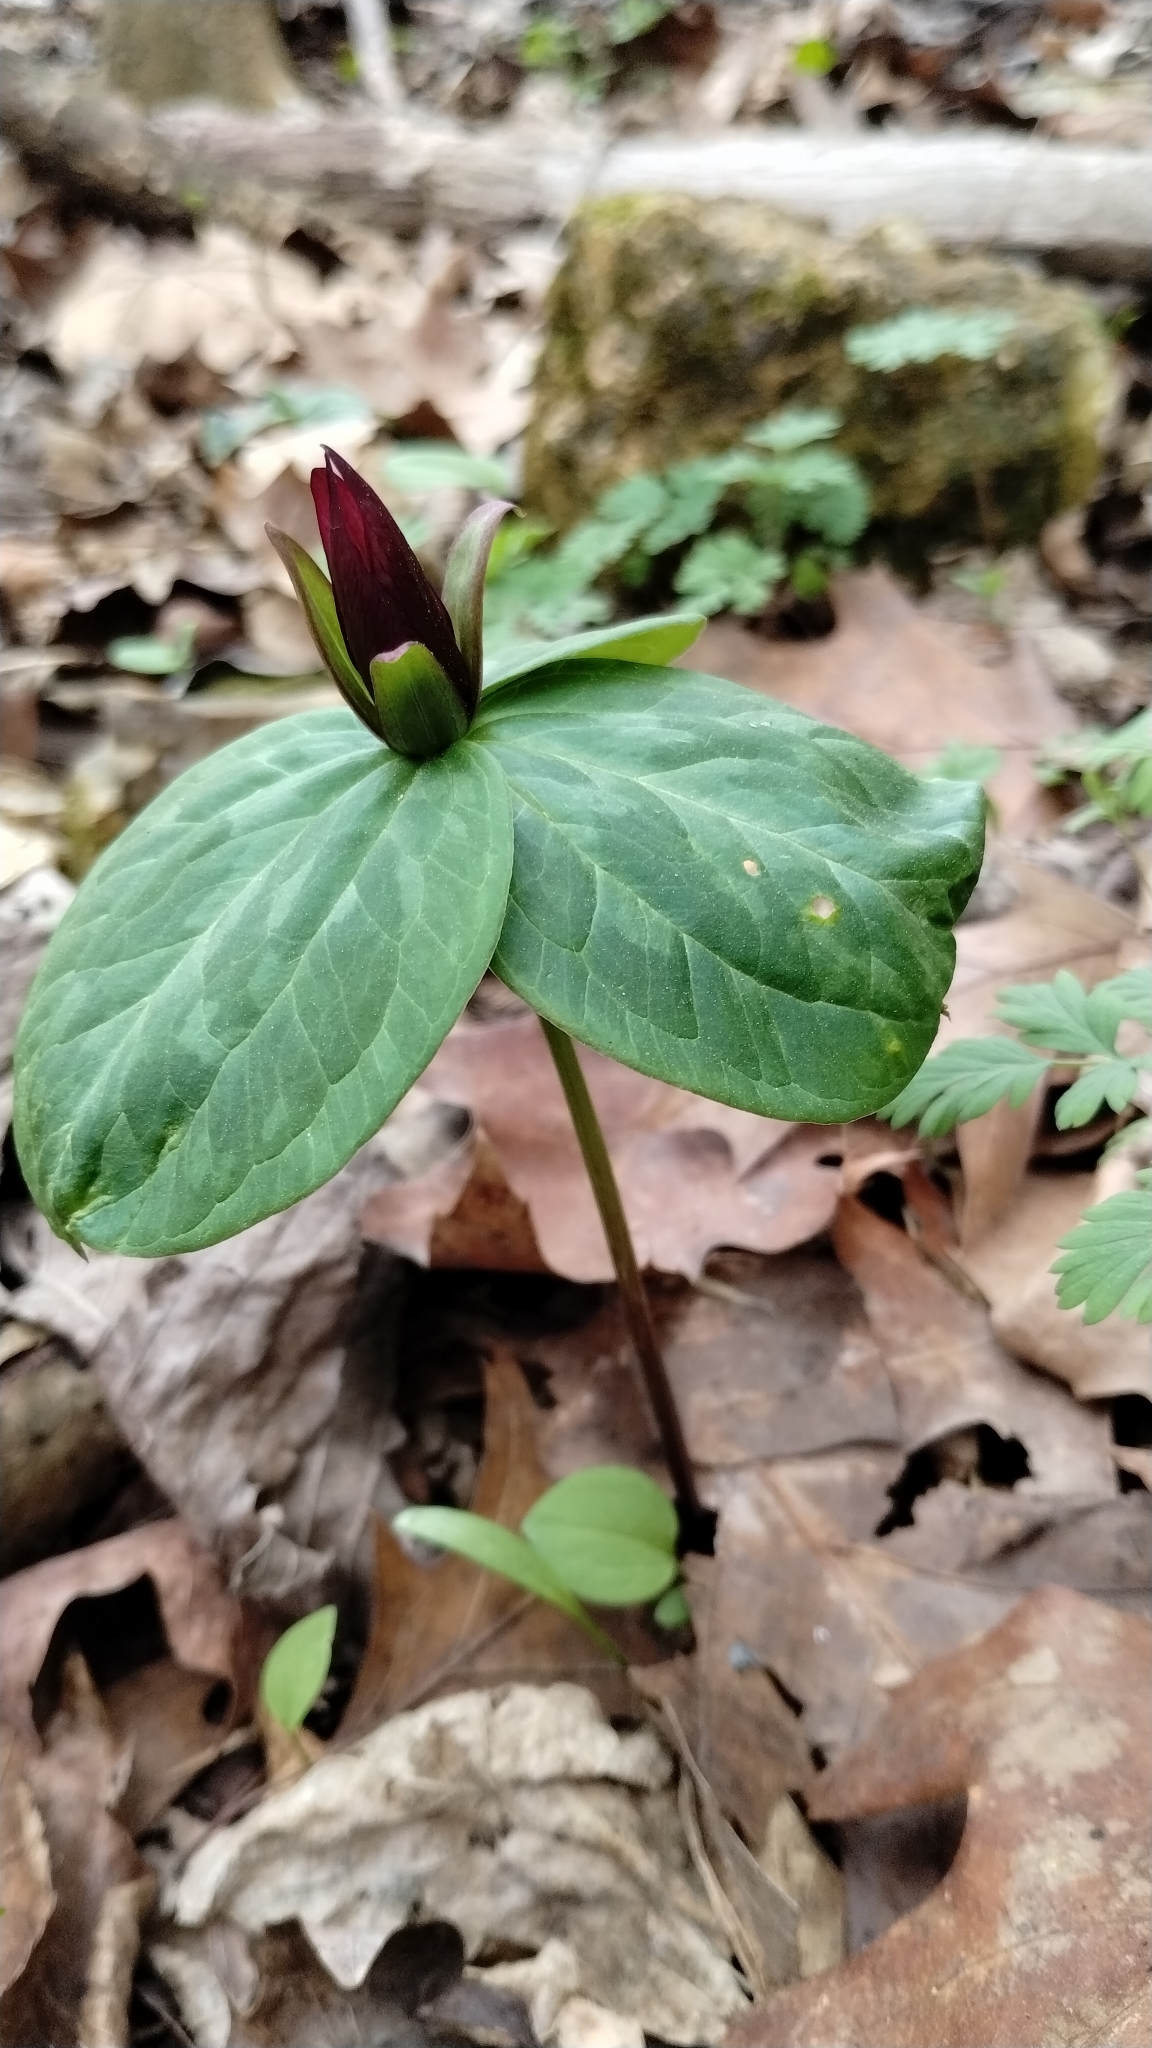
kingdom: Plantae
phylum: Tracheophyta
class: Liliopsida
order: Liliales
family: Melanthiaceae
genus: Trillium
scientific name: Trillium sessile
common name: Sessile trillium
